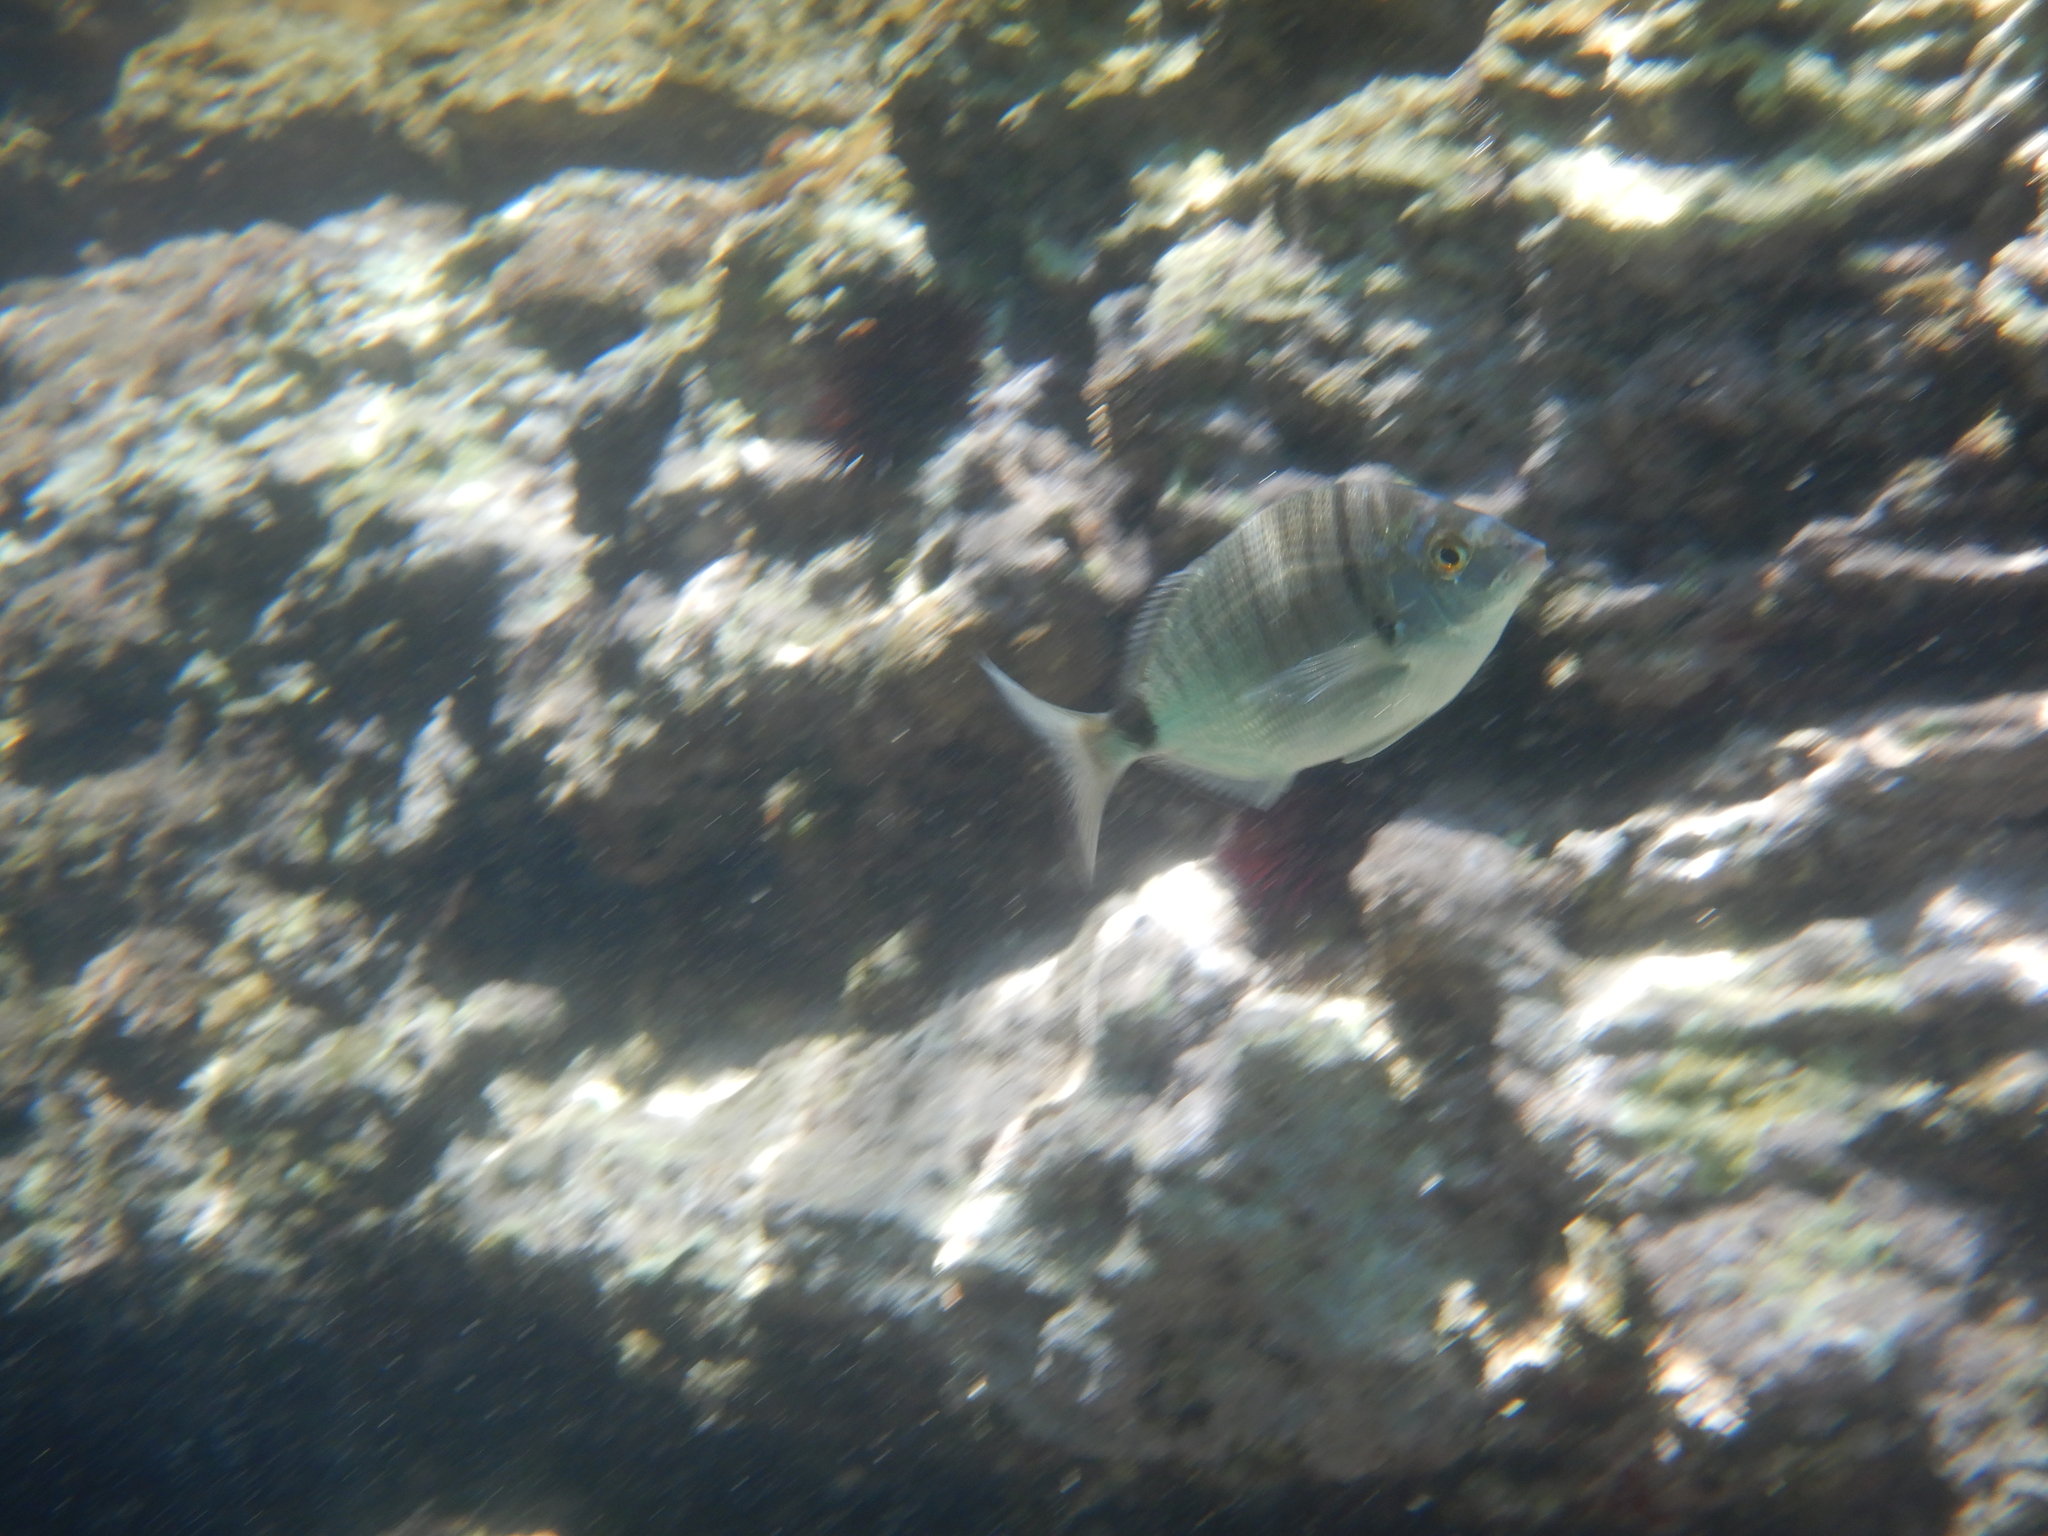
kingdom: Animalia
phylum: Chordata
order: Perciformes
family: Sparidae
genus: Diplodus
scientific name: Diplodus puntazzo
